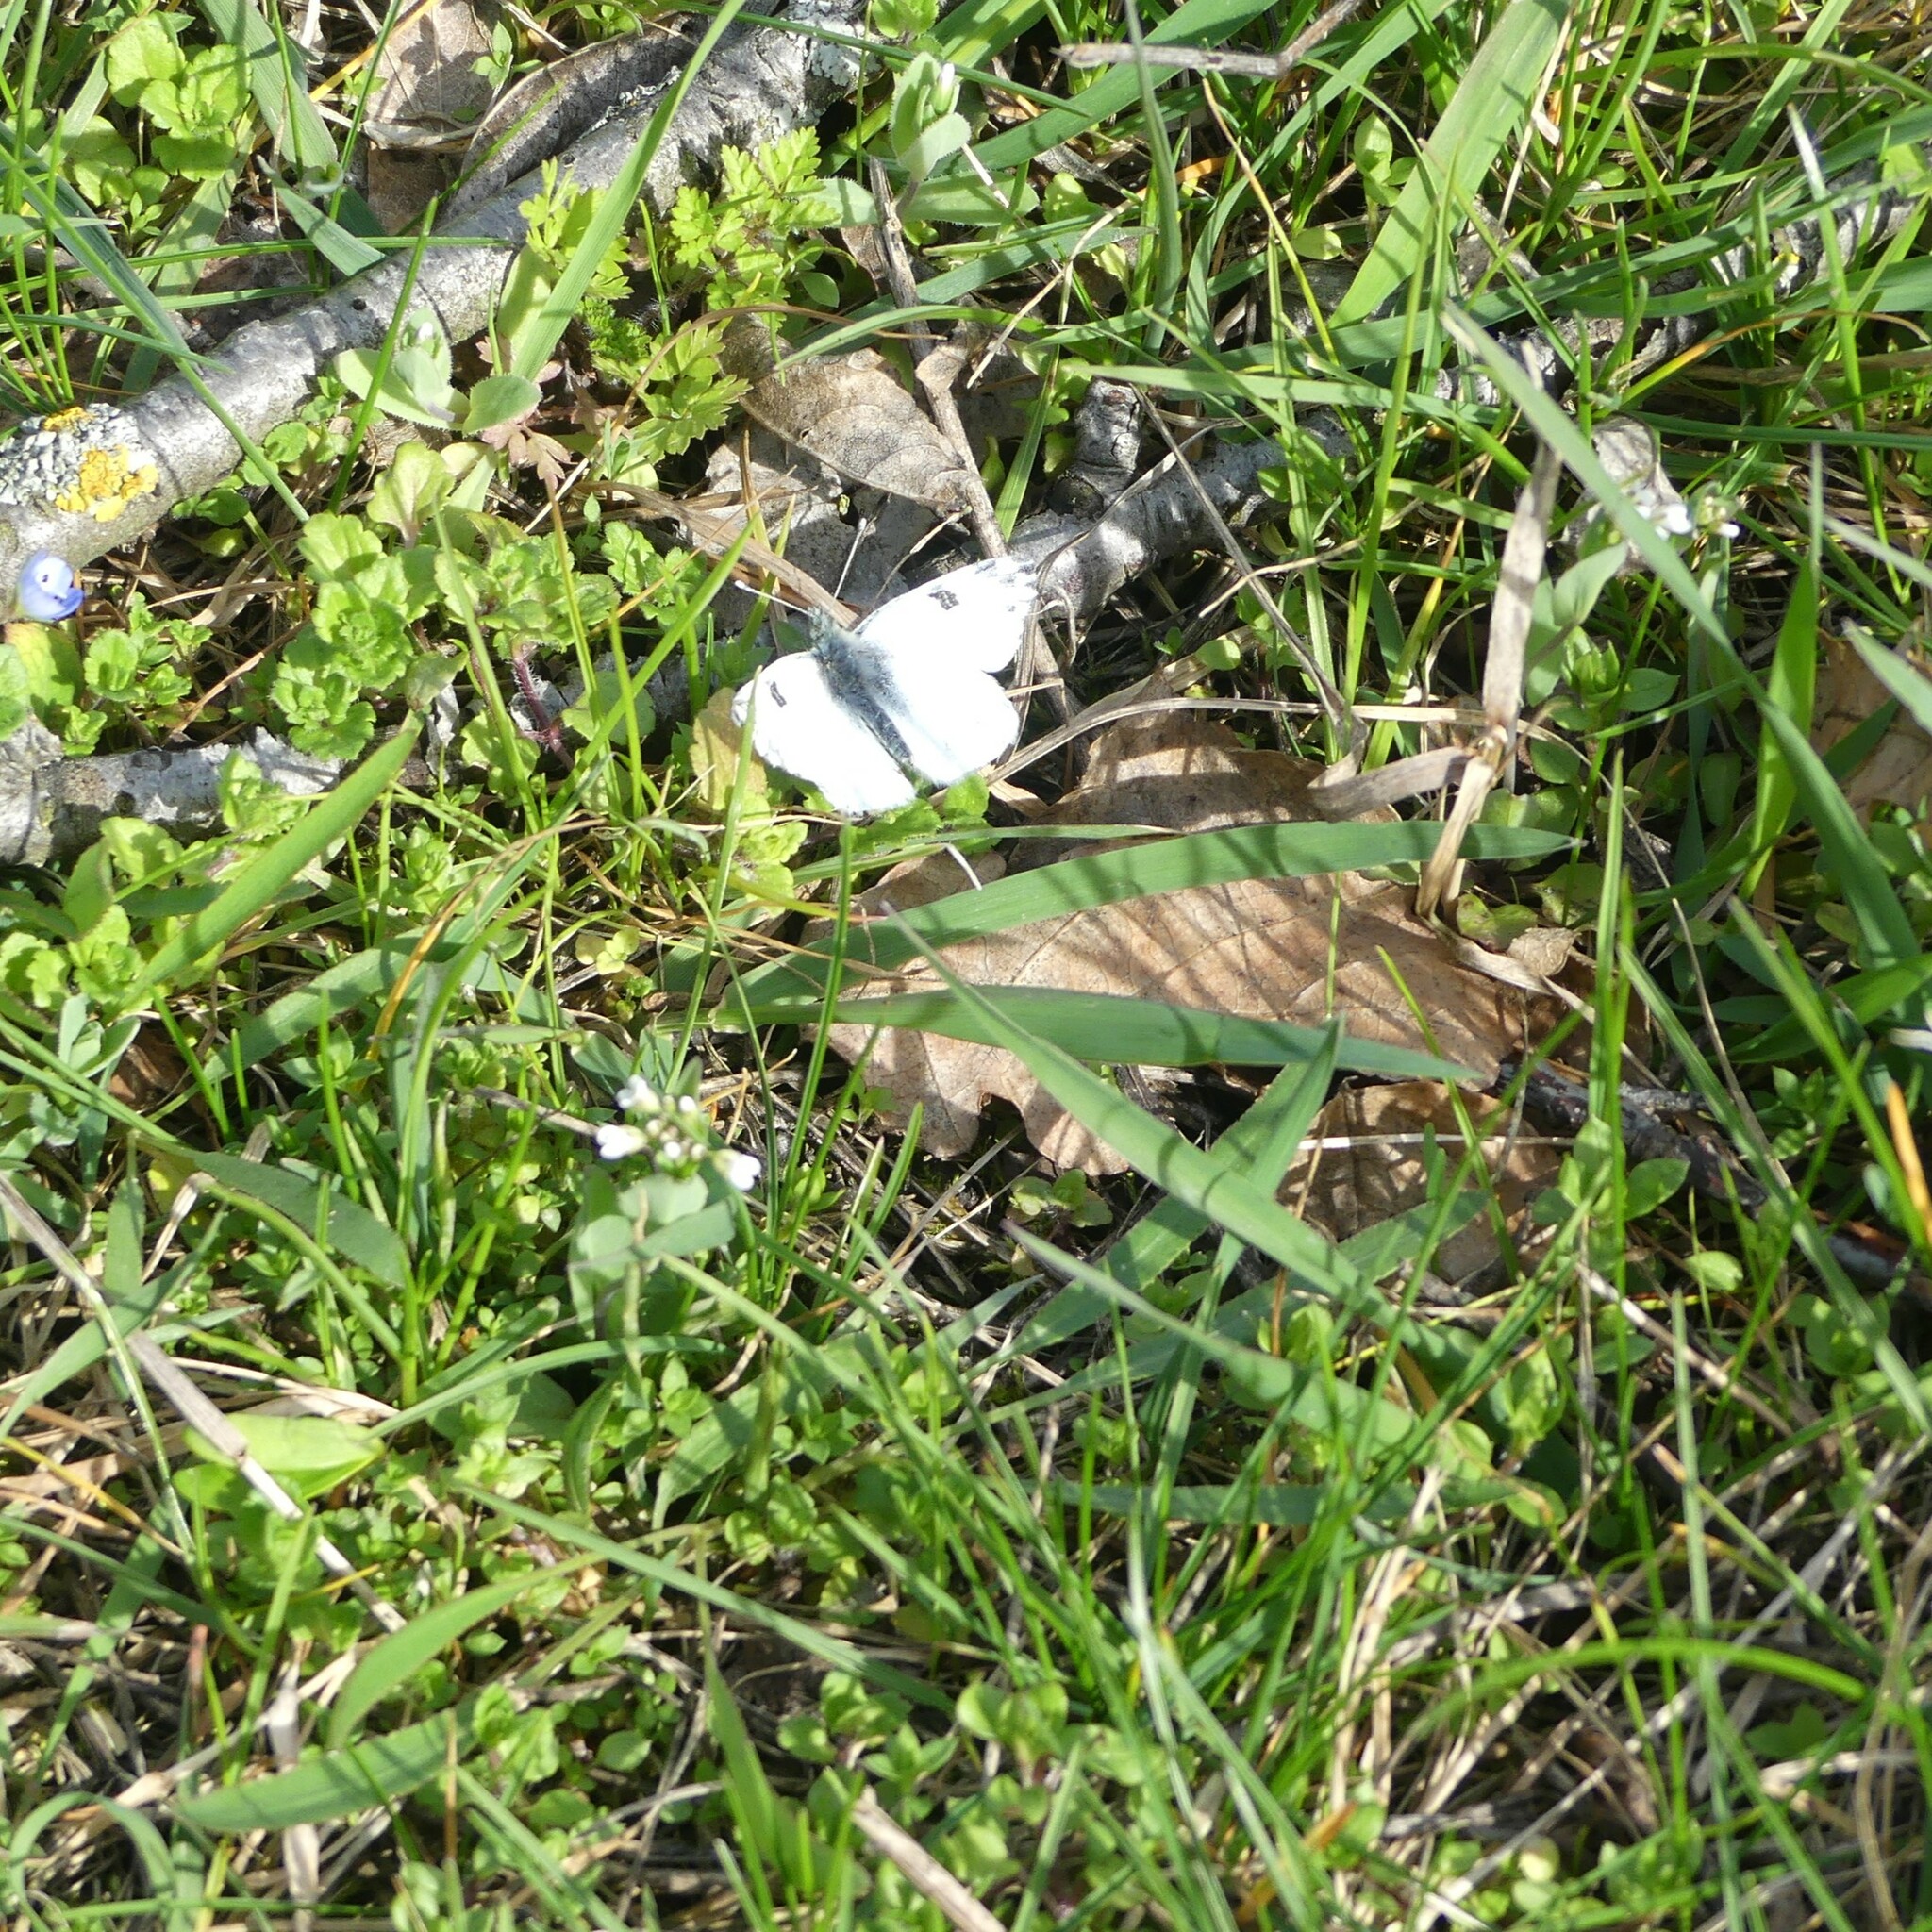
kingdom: Animalia
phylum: Arthropoda
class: Insecta
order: Lepidoptera
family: Pieridae
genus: Pontia
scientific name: Pontia edusa
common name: Eastern bath white
